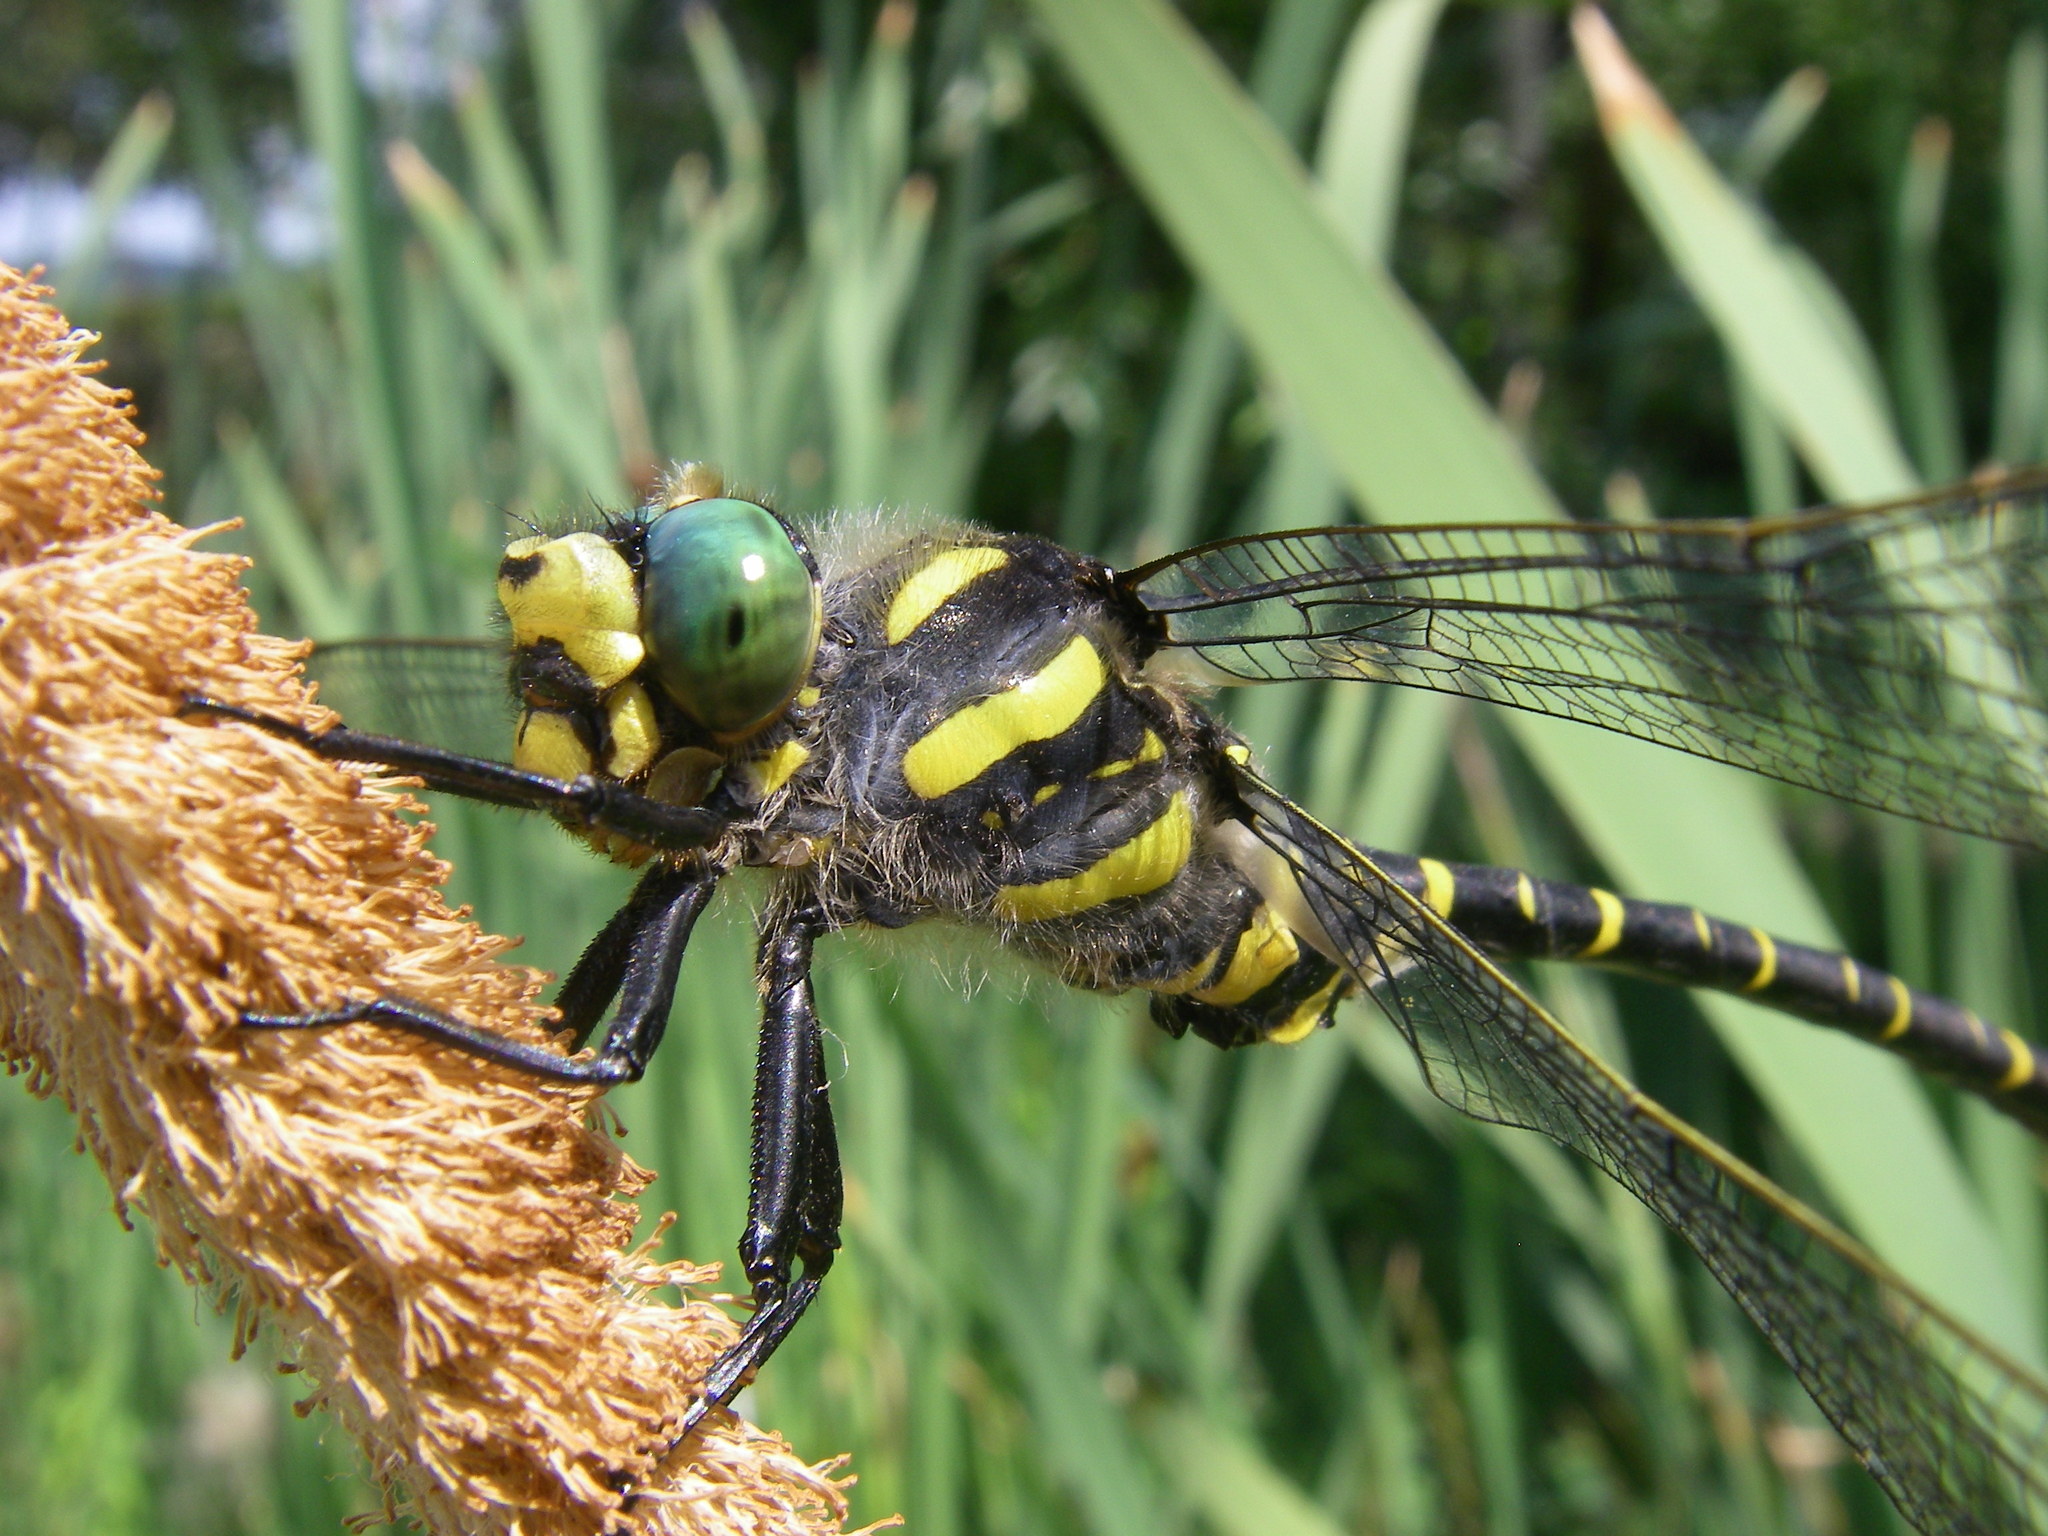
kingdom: Animalia
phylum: Arthropoda
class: Insecta
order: Odonata
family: Cordulegastridae
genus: Cordulegaster
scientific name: Cordulegaster boltonii
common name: Golden-ringed dragonfly
